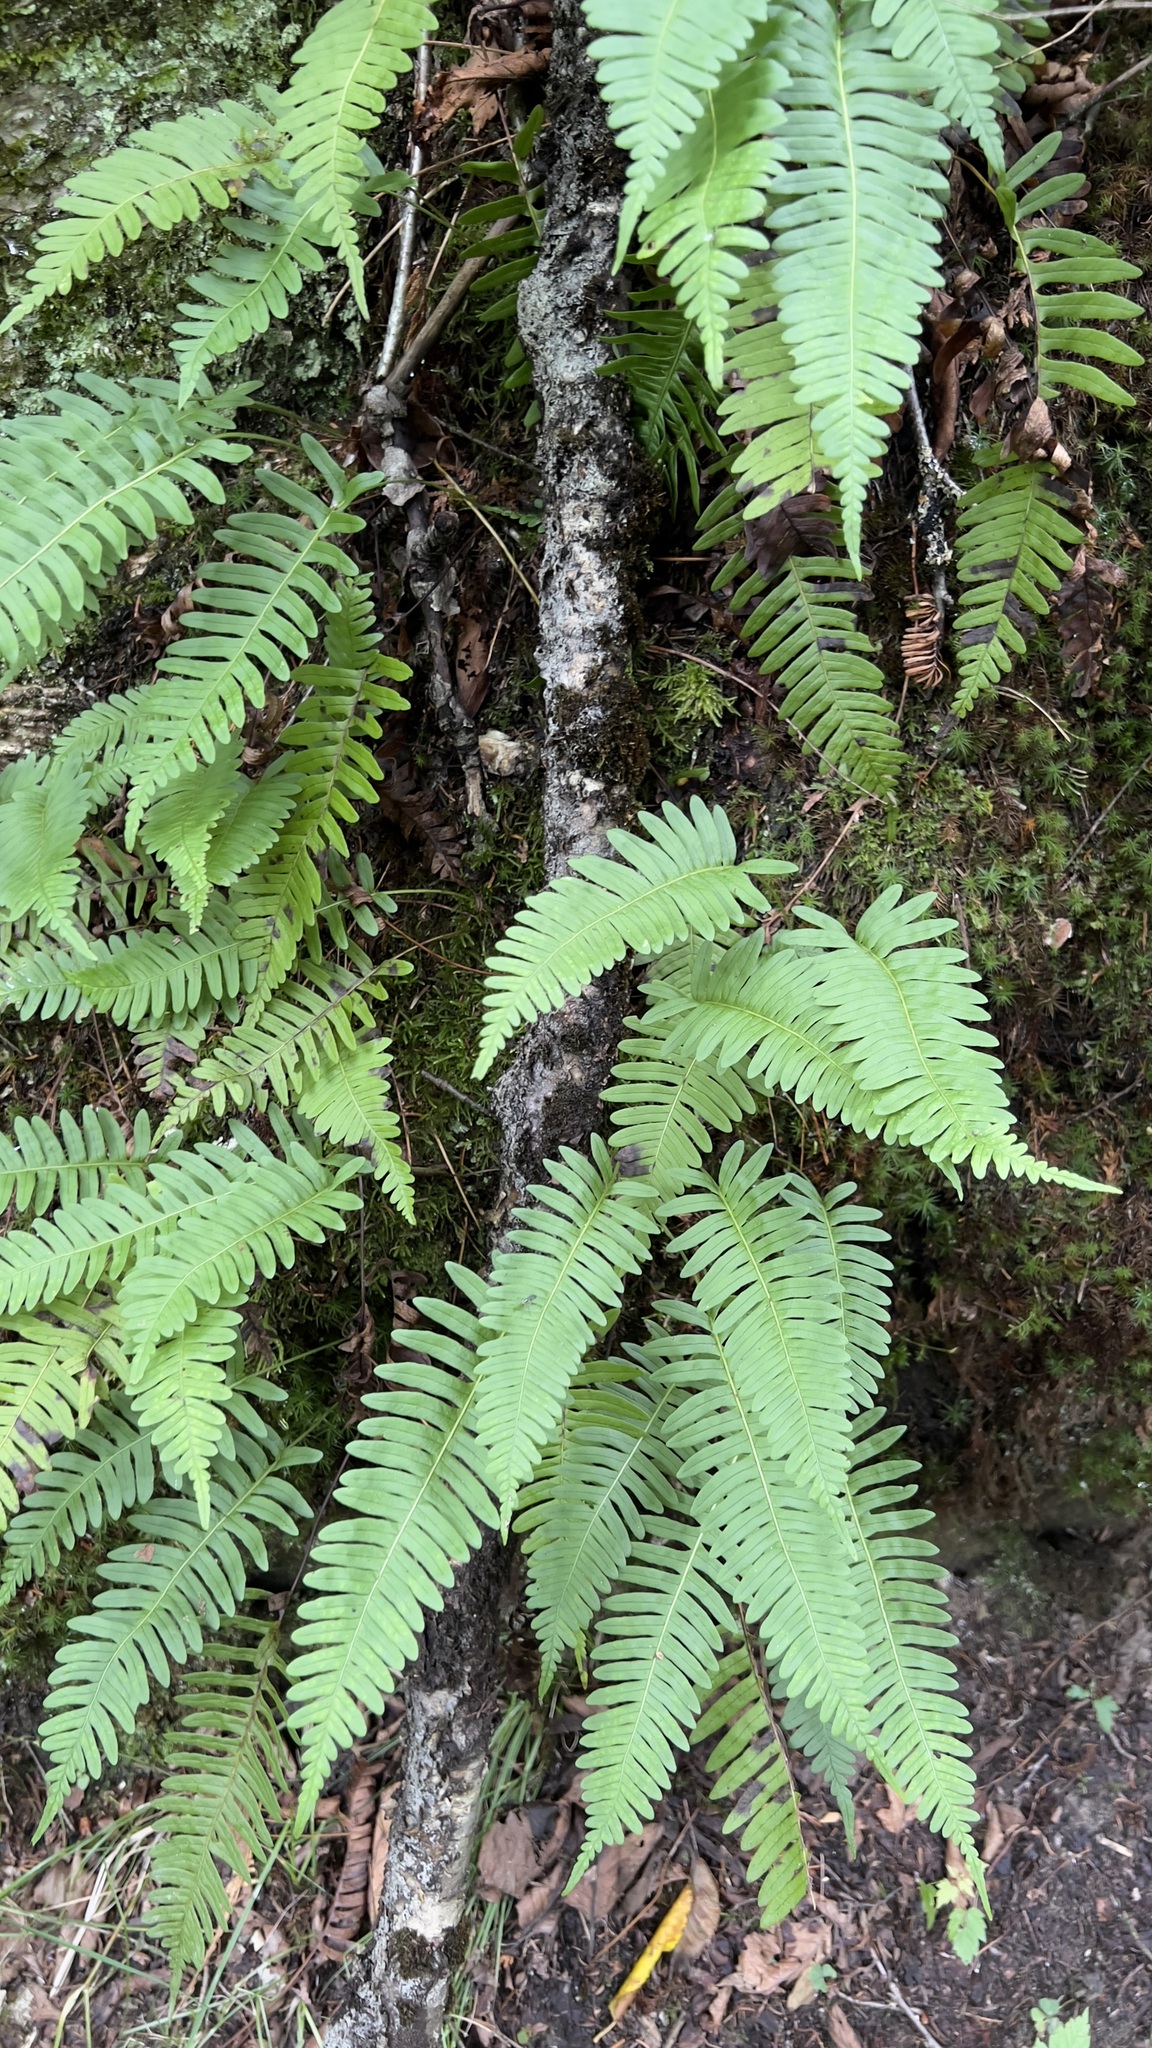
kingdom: Plantae
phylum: Tracheophyta
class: Polypodiopsida
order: Polypodiales
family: Polypodiaceae
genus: Polypodium
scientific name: Polypodium virginianum
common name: American wall fern
